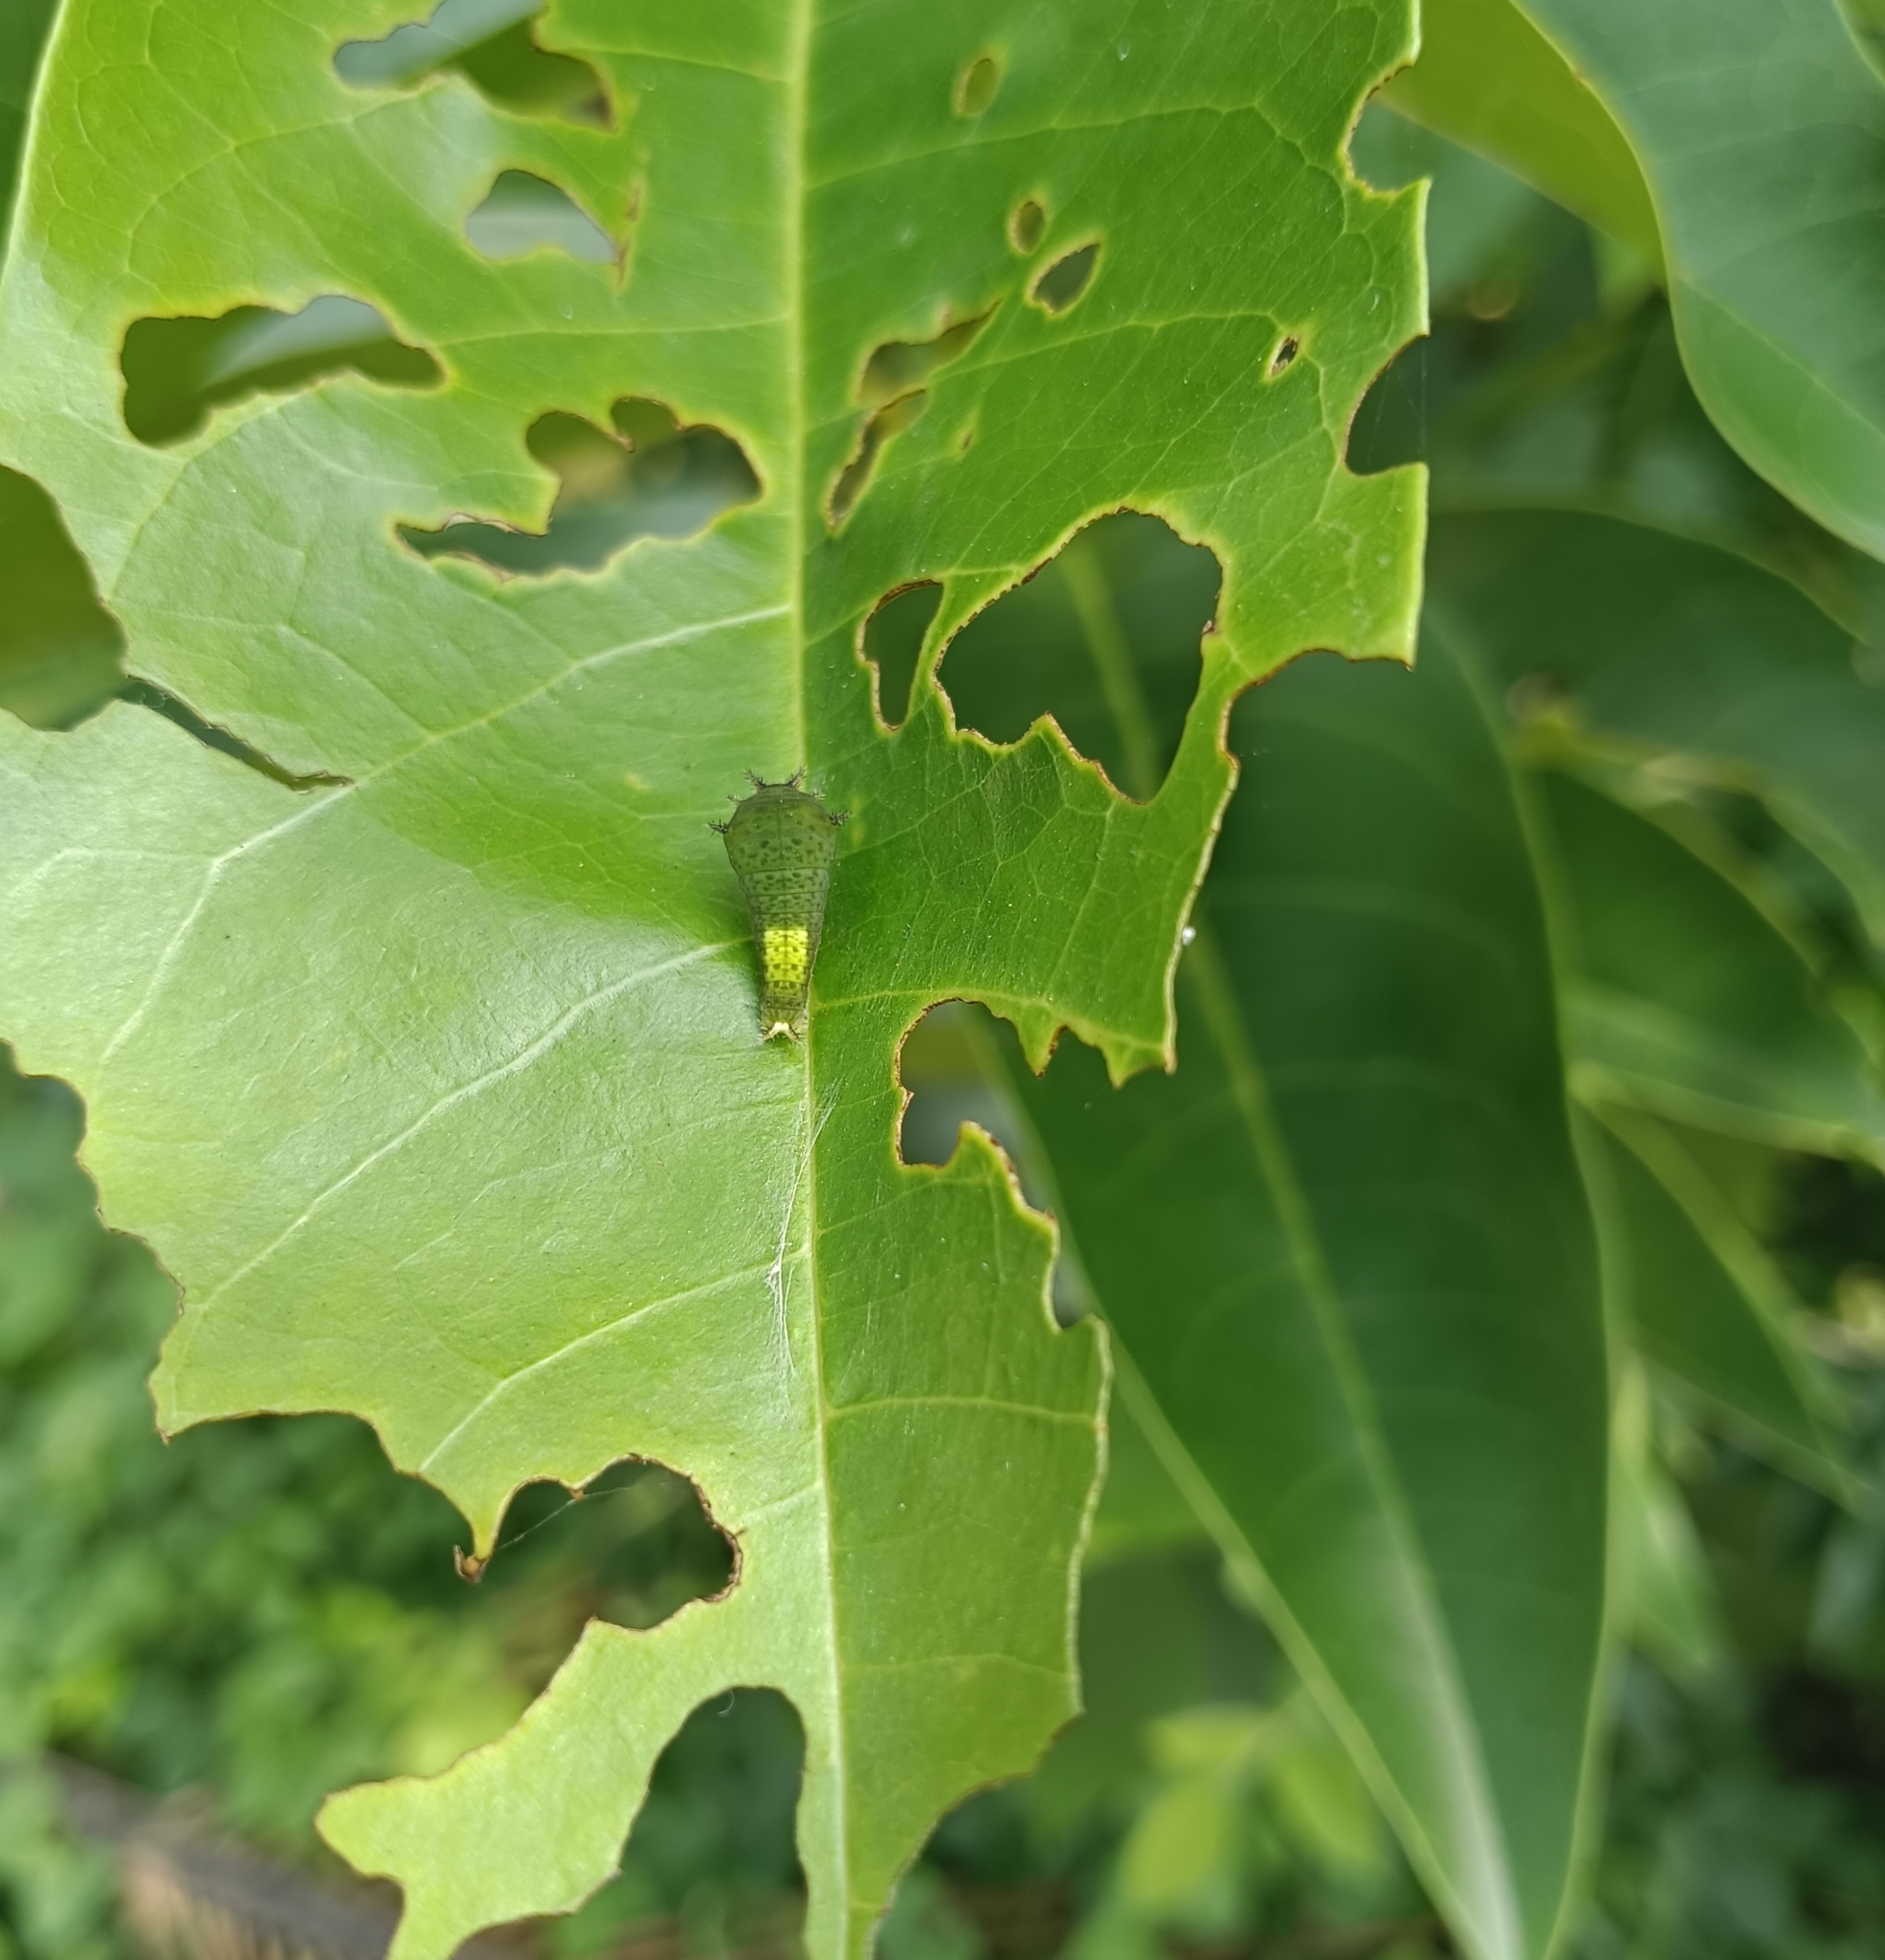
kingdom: Animalia
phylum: Arthropoda
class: Insecta
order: Lepidoptera
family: Papilionidae
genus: Graphium
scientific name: Graphium agamemnon
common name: Tailed jay
